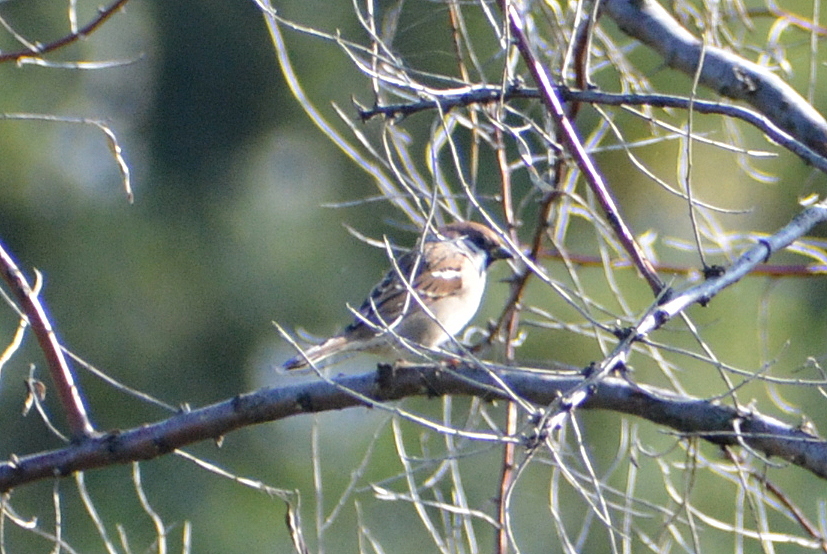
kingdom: Animalia
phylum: Chordata
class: Aves
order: Passeriformes
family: Passeridae
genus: Passer
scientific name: Passer montanus
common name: Eurasian tree sparrow
